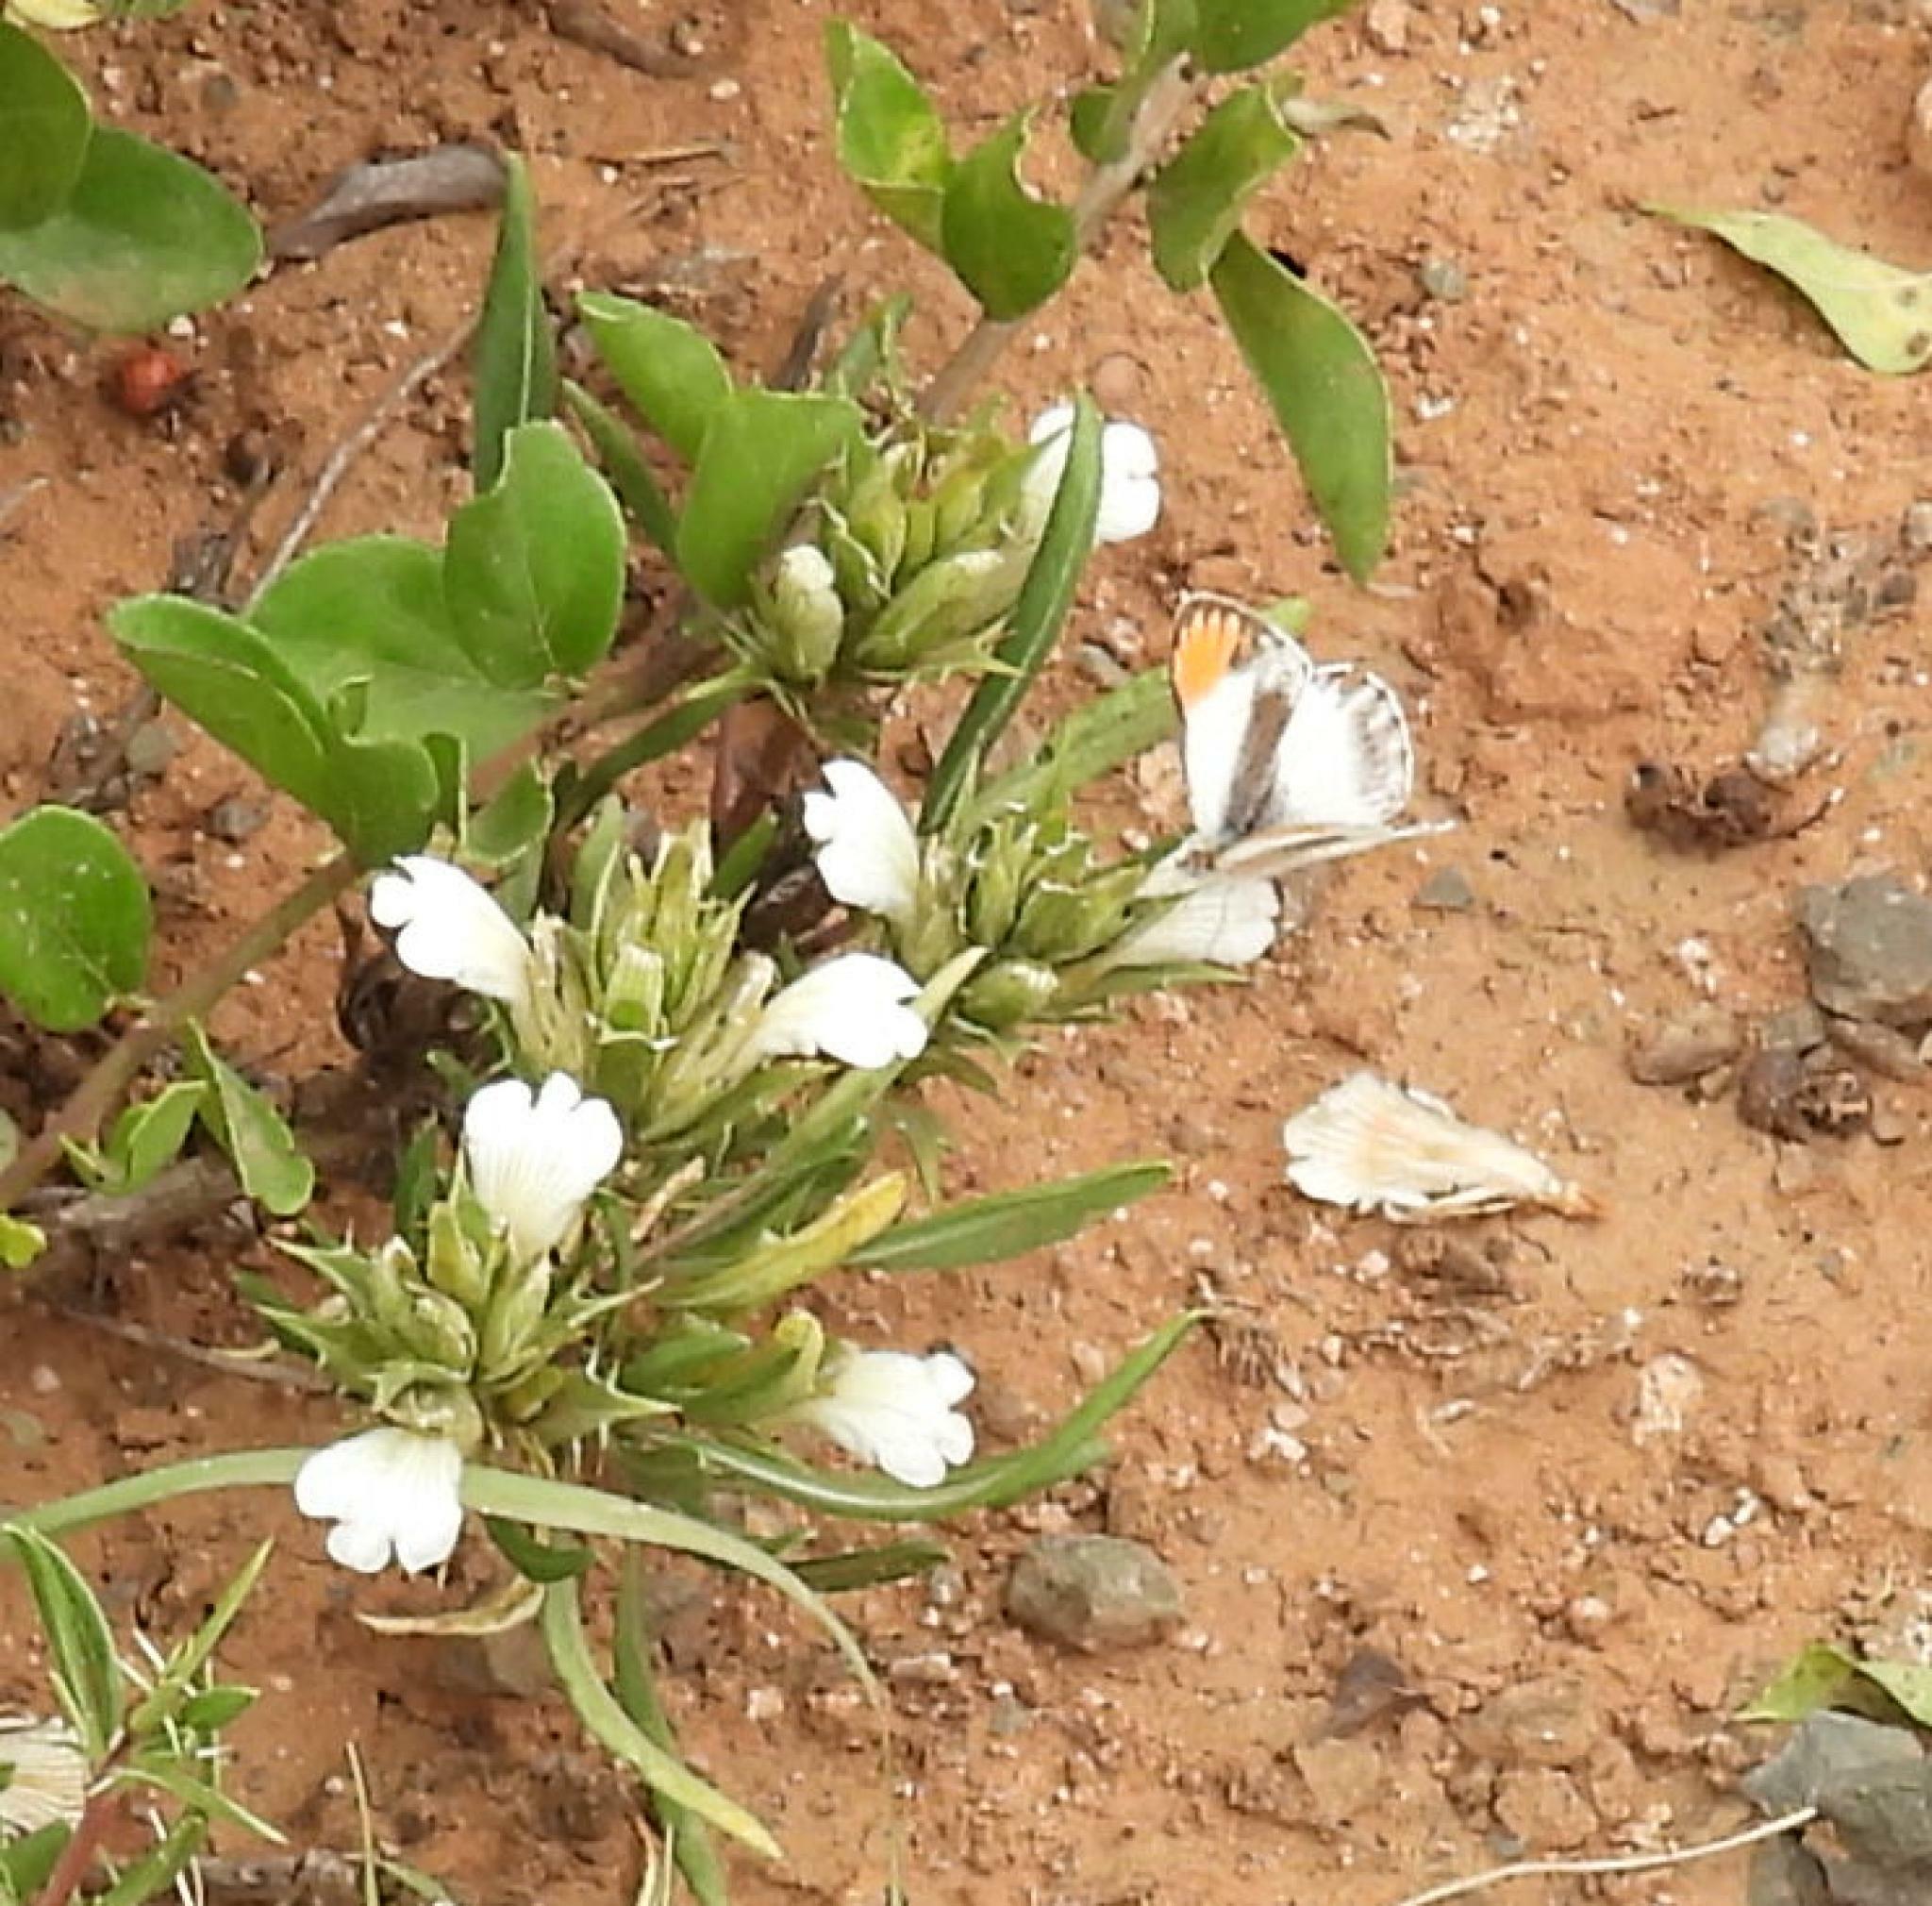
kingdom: Animalia
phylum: Arthropoda
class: Insecta
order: Lepidoptera
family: Pieridae
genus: Colotis
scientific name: Colotis evagore
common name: Desert orange-tip
